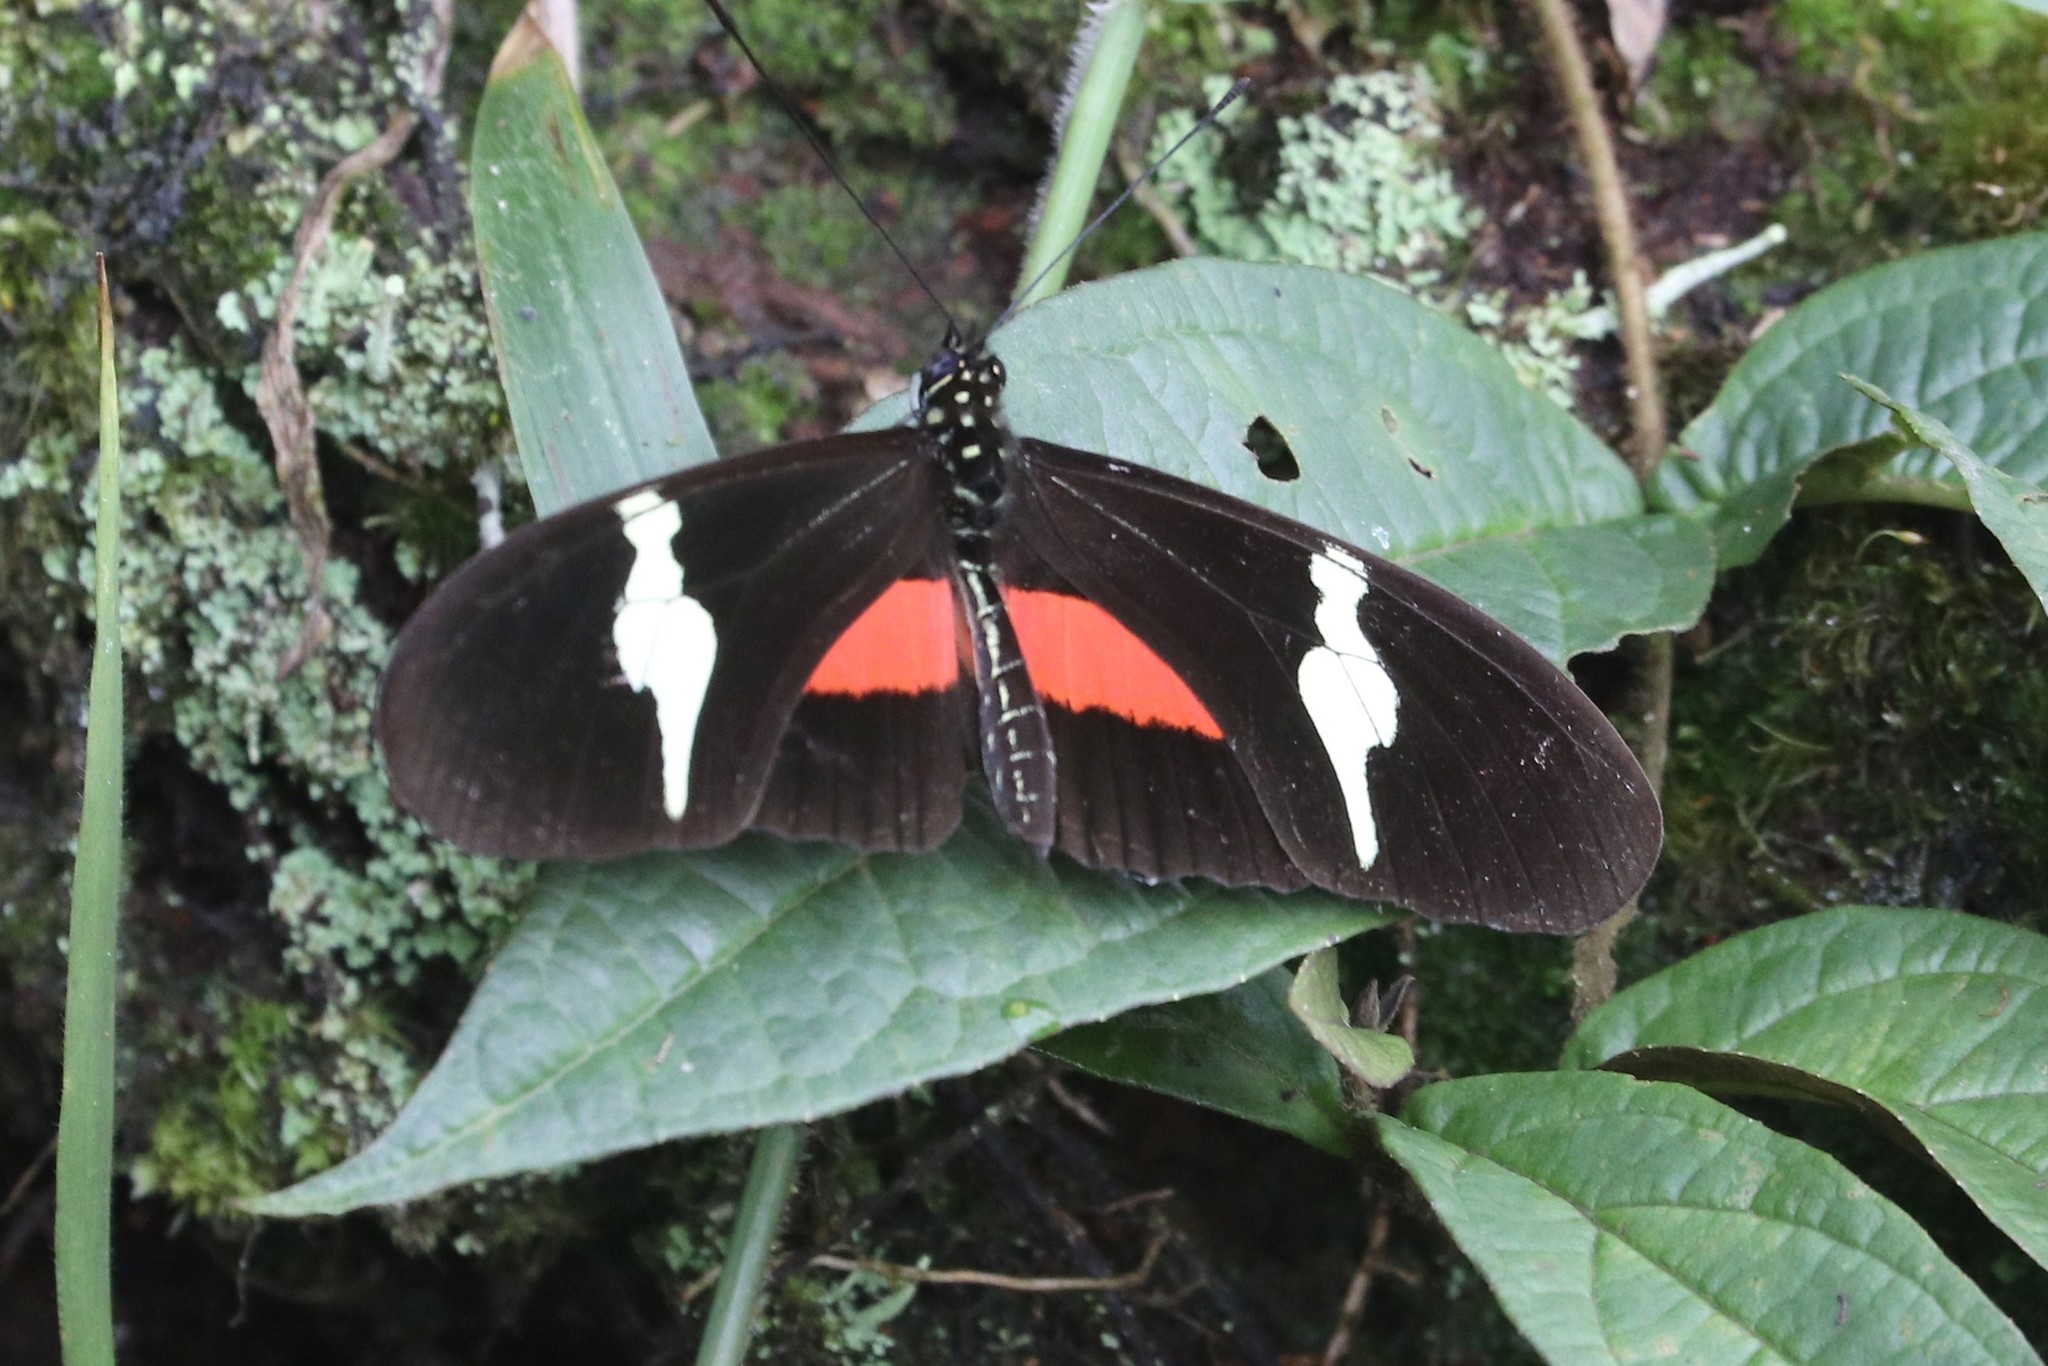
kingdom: Animalia
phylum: Arthropoda
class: Insecta
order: Lepidoptera
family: Nymphalidae
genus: Heliconius
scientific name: Heliconius clysonymus
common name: Clysonymus longwing
